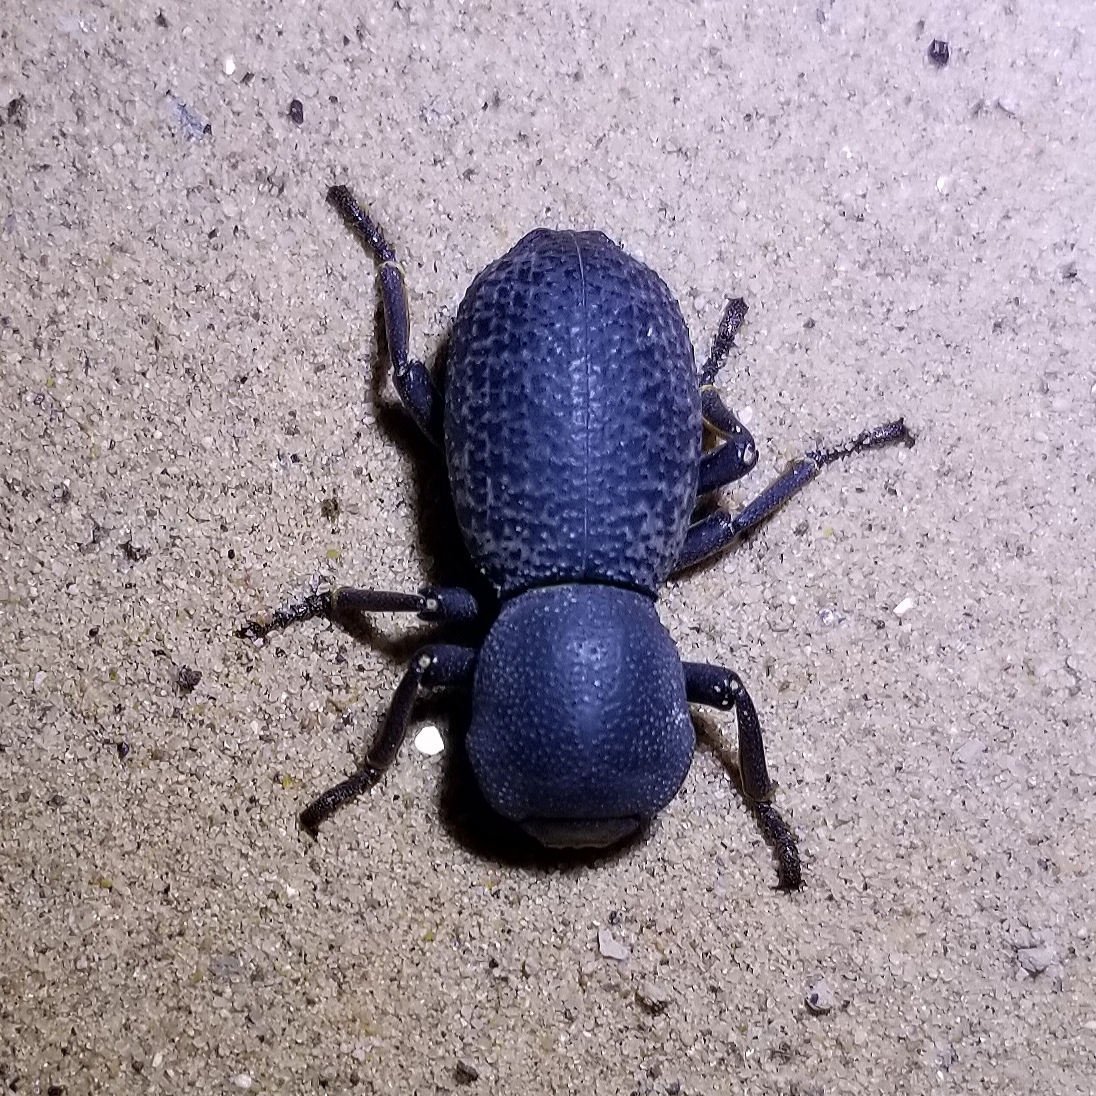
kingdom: Animalia
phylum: Arthropoda
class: Insecta
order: Coleoptera
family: Zopheridae
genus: Zopherus
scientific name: Zopherus tristis
